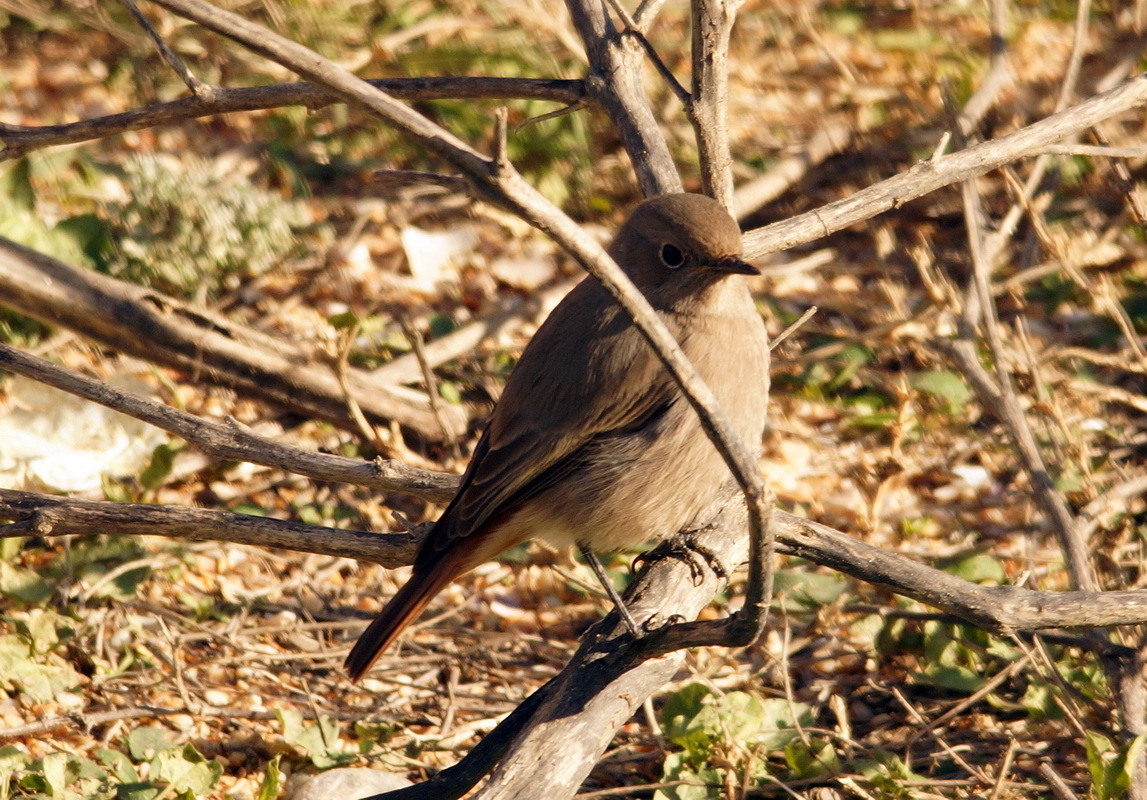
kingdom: Animalia
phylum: Chordata
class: Aves
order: Passeriformes
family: Muscicapidae
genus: Phoenicurus
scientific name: Phoenicurus ochruros
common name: Black redstart
